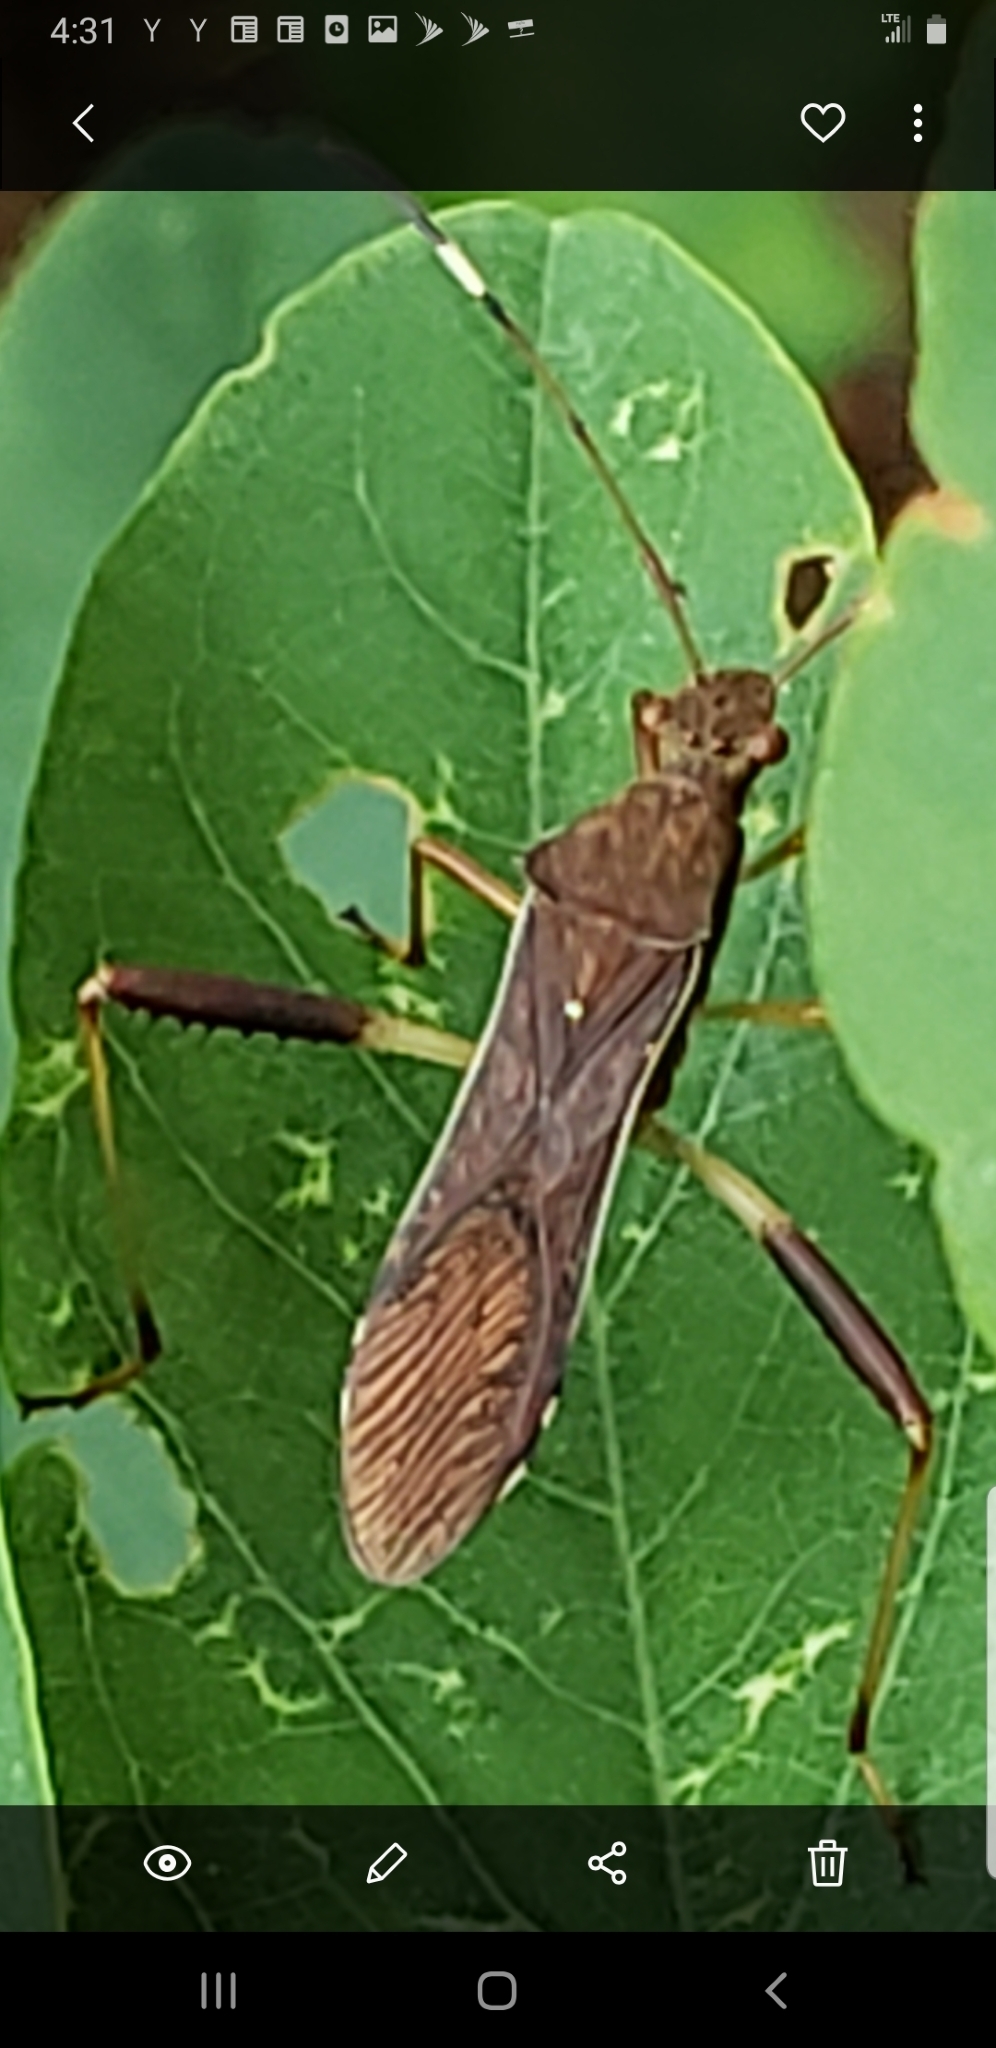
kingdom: Animalia
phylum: Arthropoda
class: Insecta
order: Hemiptera
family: Alydidae
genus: Megalotomus
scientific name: Megalotomus quinquespinosus
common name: Lupine bug
